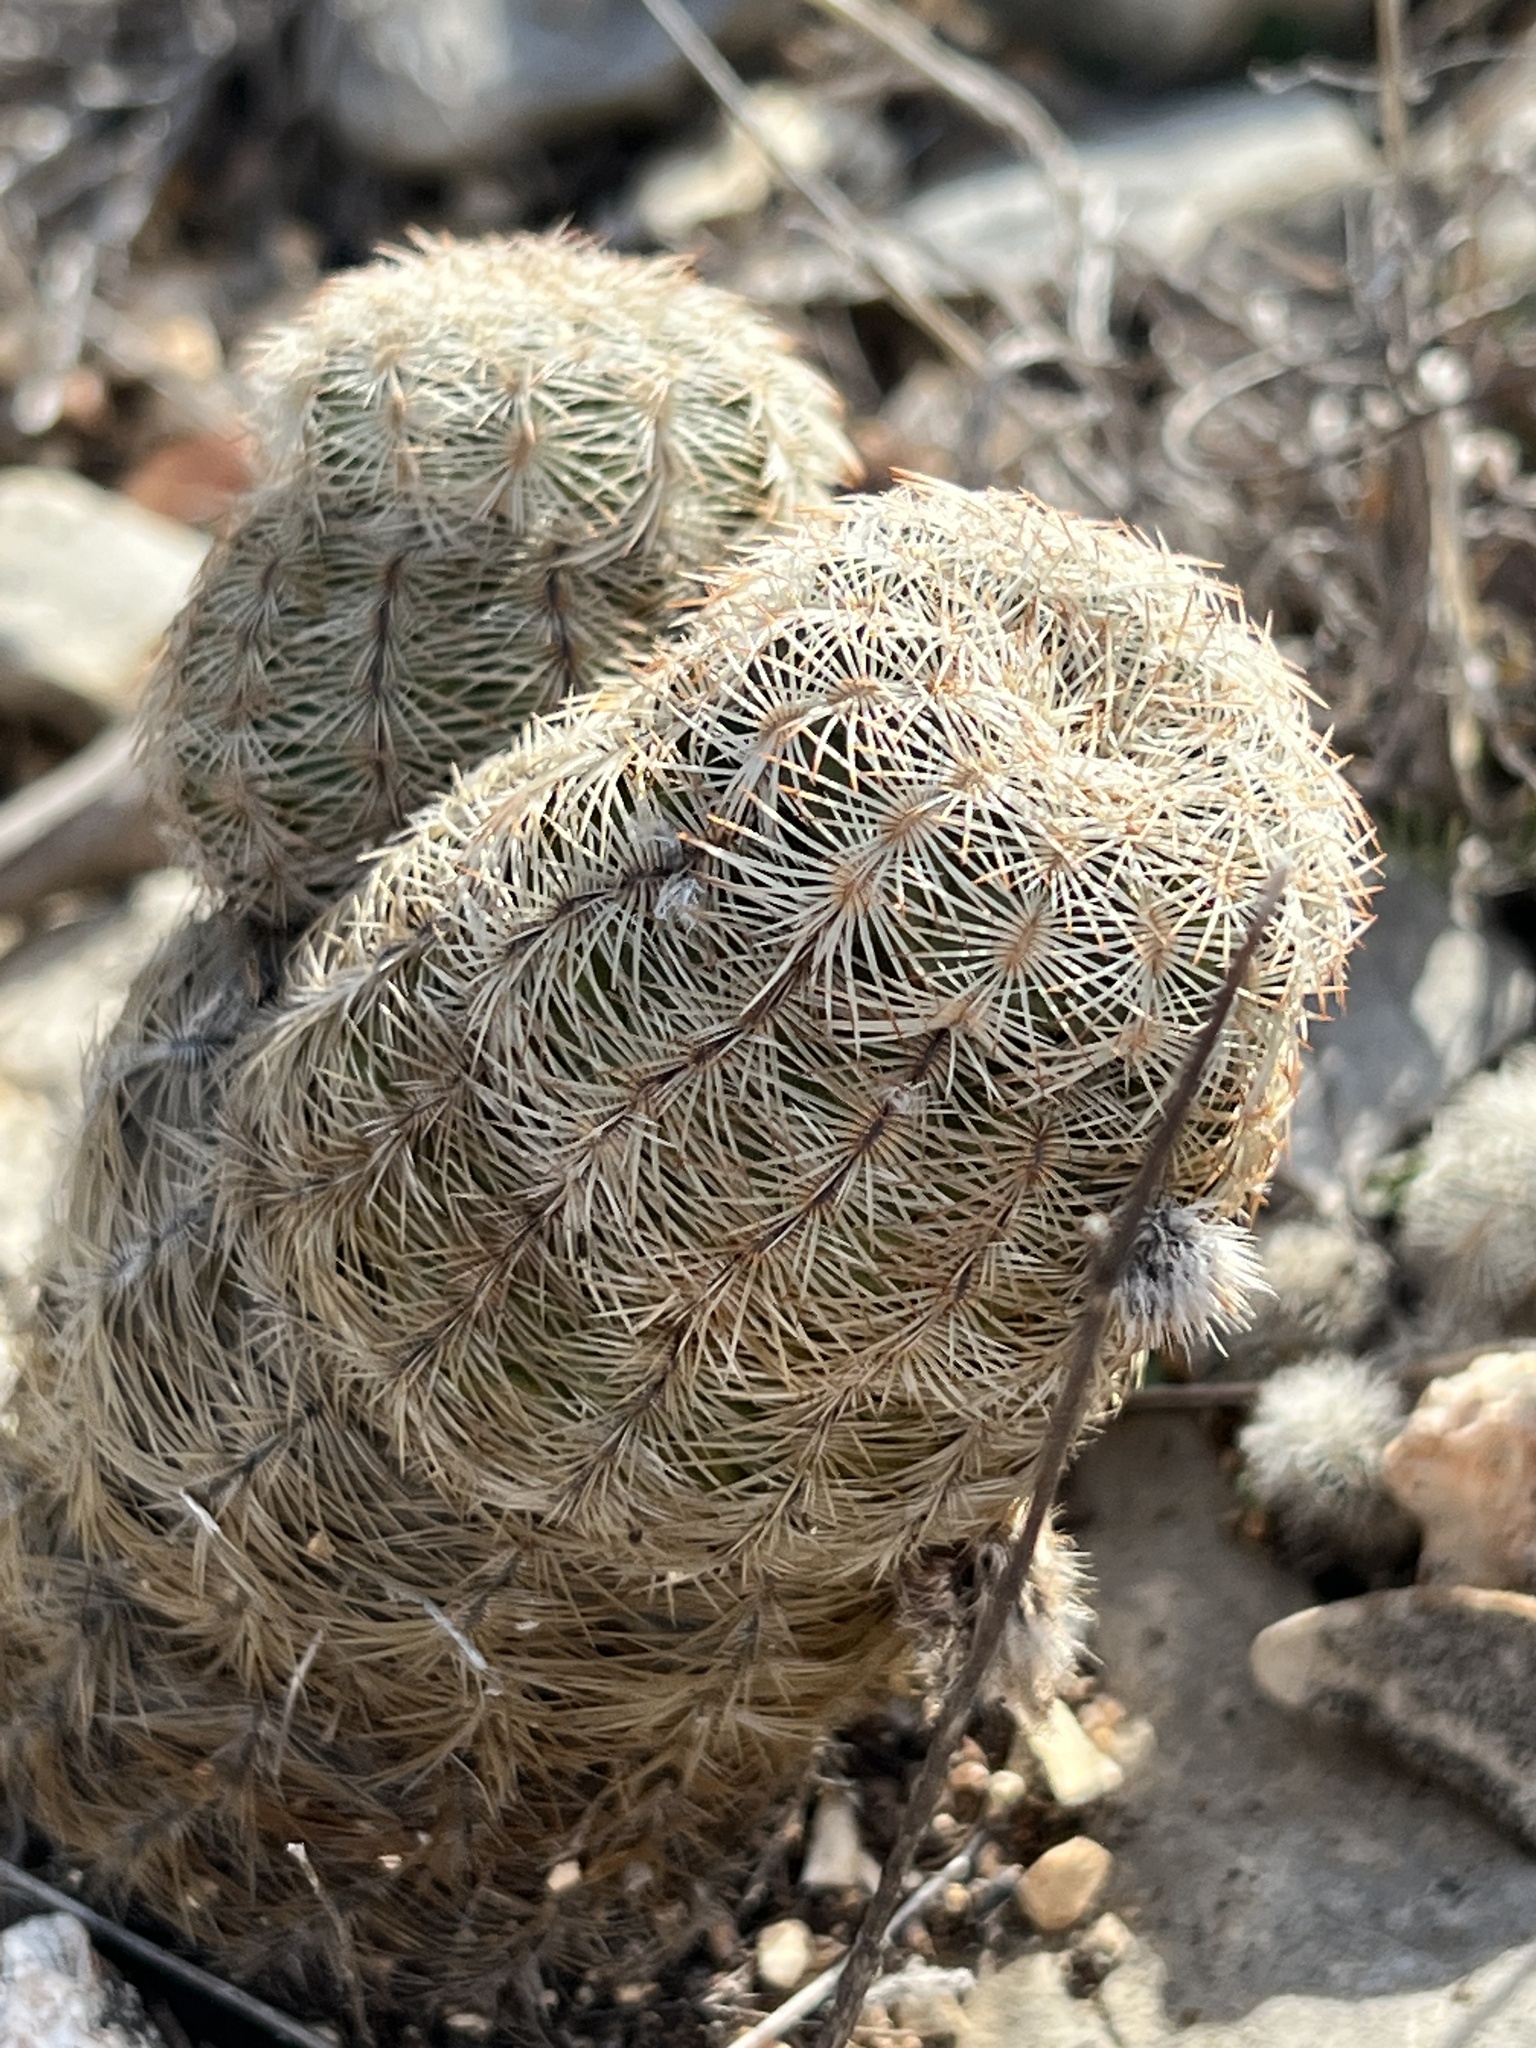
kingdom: Plantae
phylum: Tracheophyta
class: Magnoliopsida
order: Caryophyllales
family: Cactaceae
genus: Echinocereus
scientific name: Echinocereus reichenbachii
